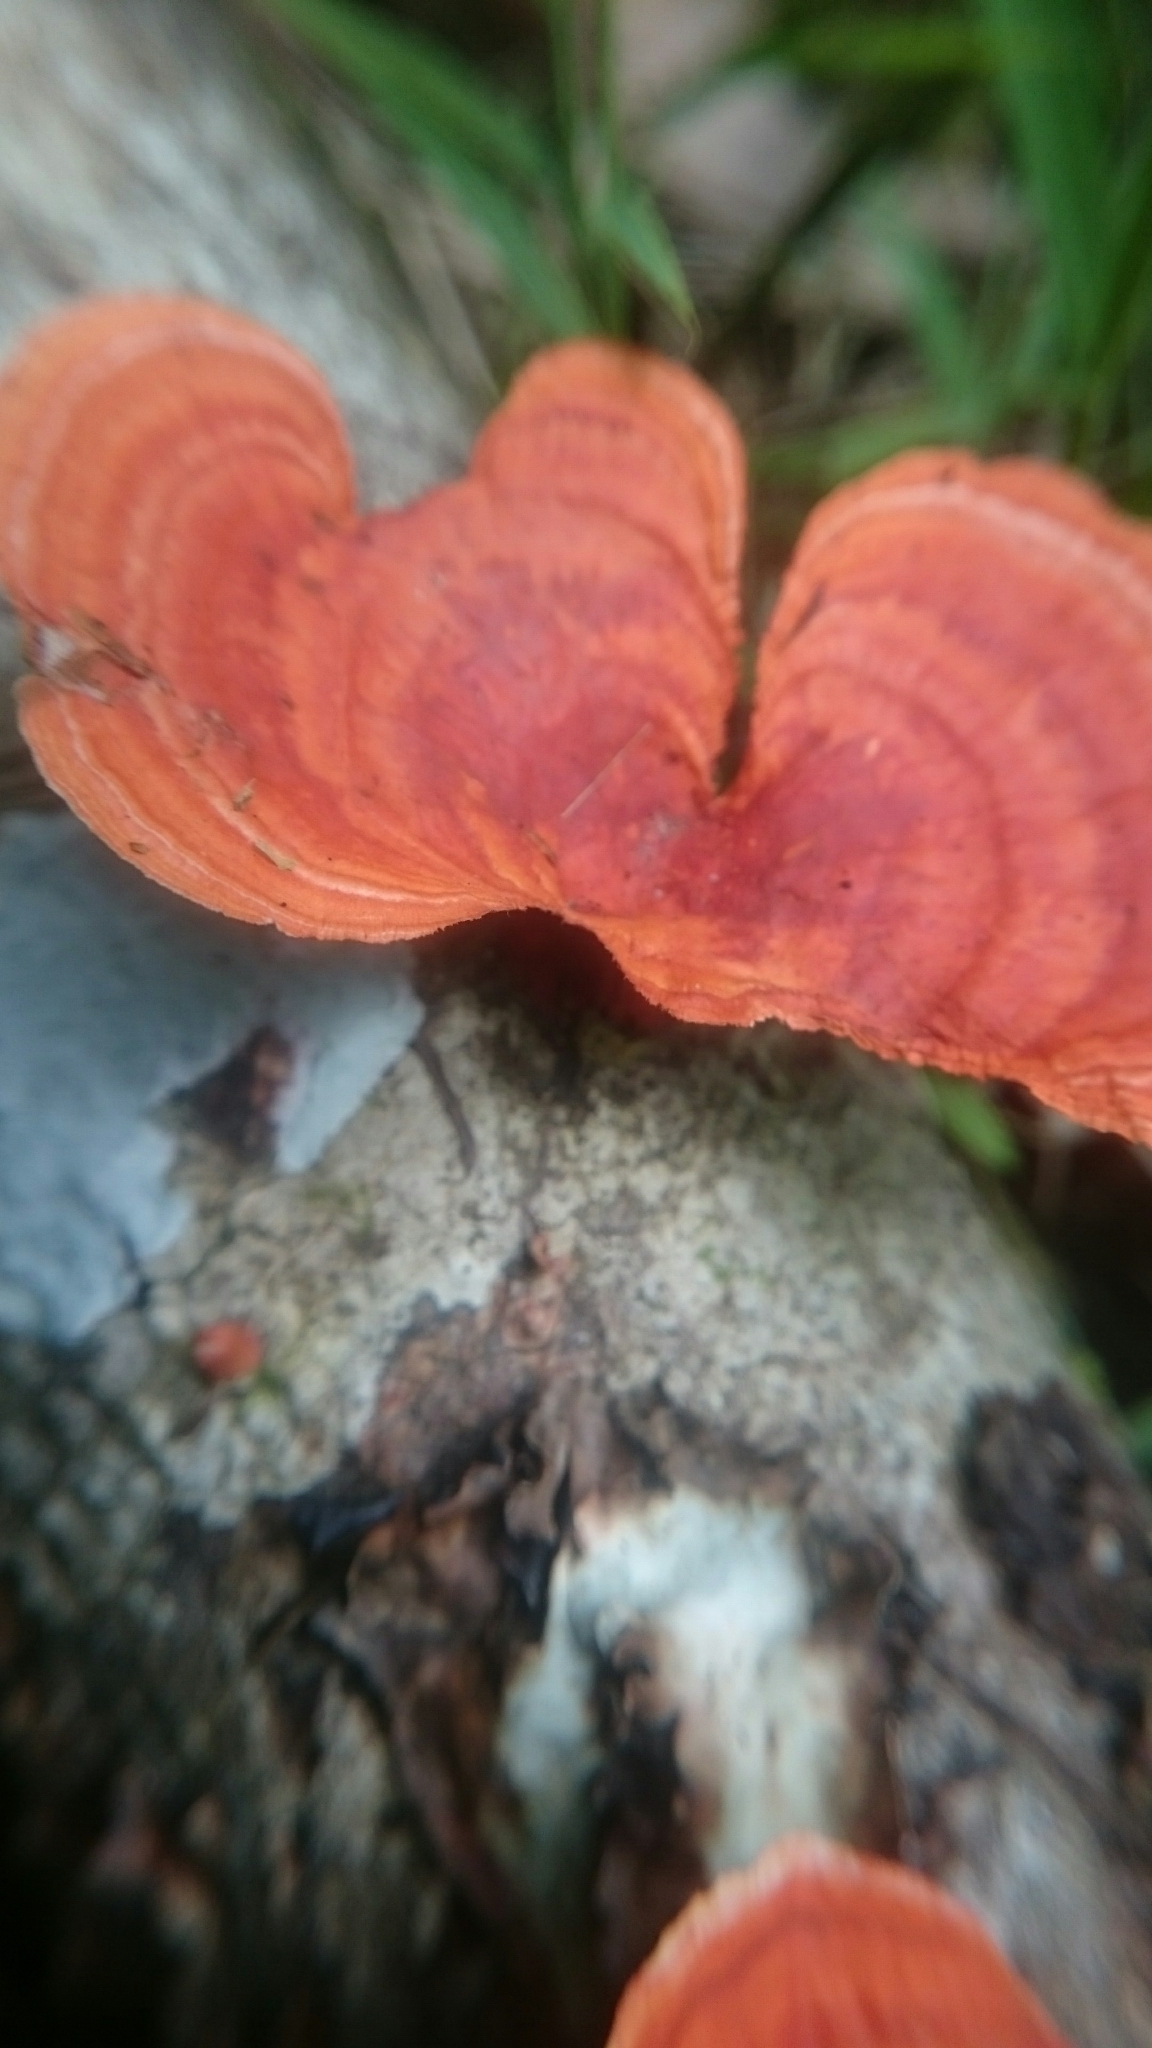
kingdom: Fungi
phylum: Basidiomycota
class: Agaricomycetes
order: Polyporales
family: Polyporaceae
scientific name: Polyporaceae
